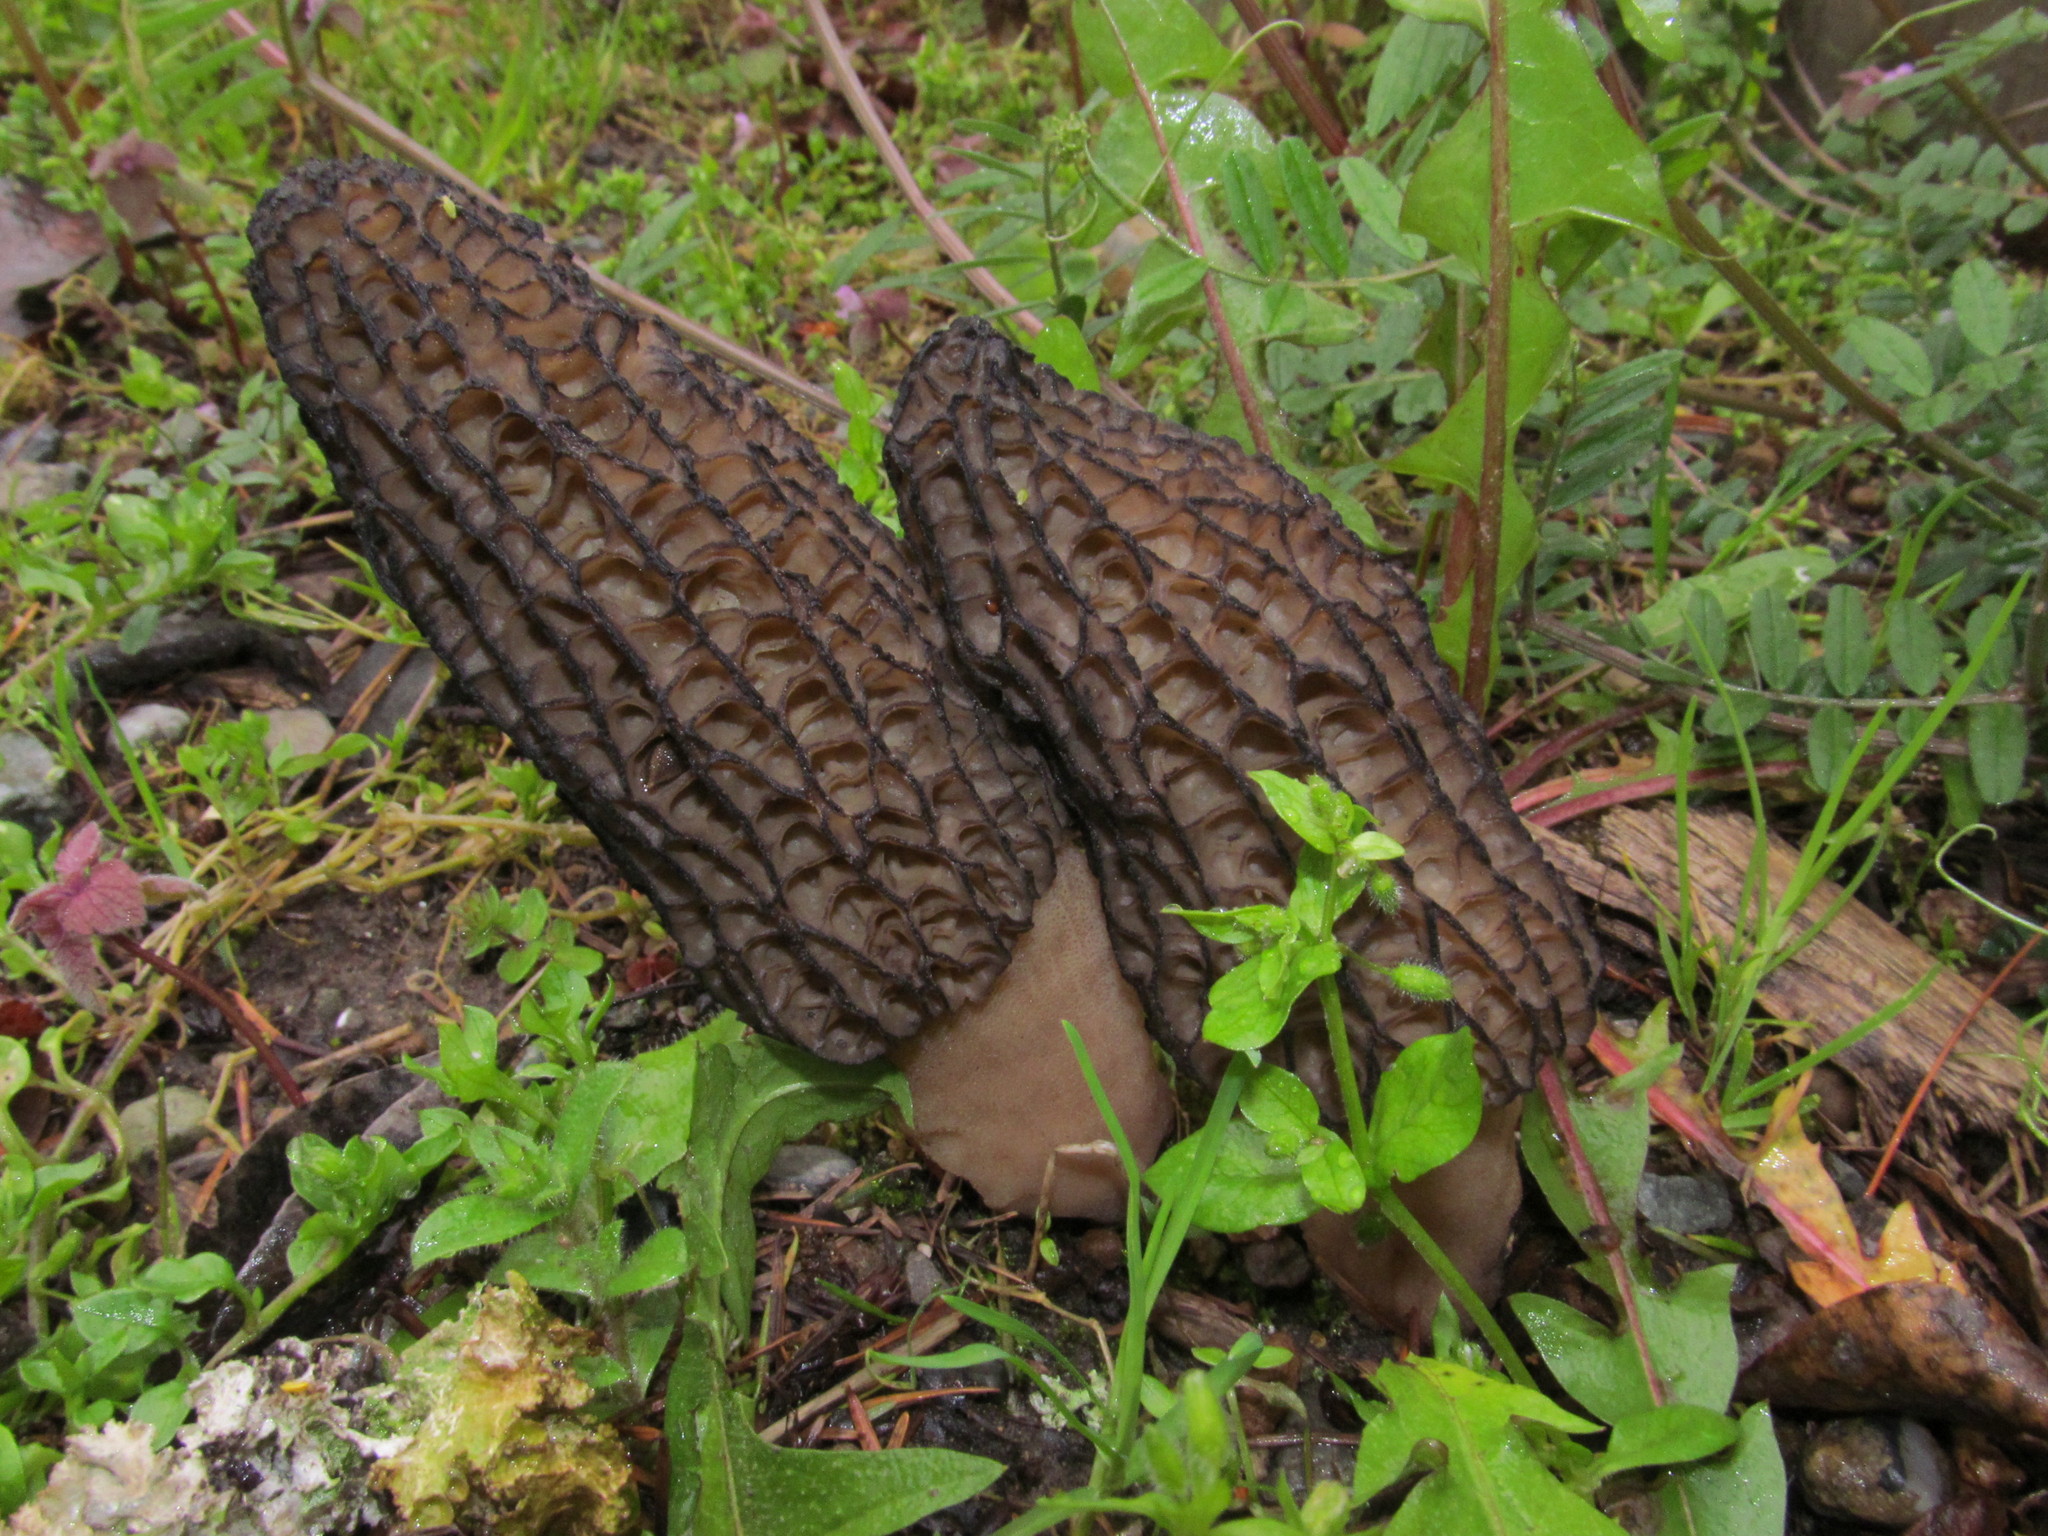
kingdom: Fungi
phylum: Ascomycota
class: Pezizomycetes
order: Pezizales
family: Morchellaceae
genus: Morchella
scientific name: Morchella importuna
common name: Landscaping black morel
